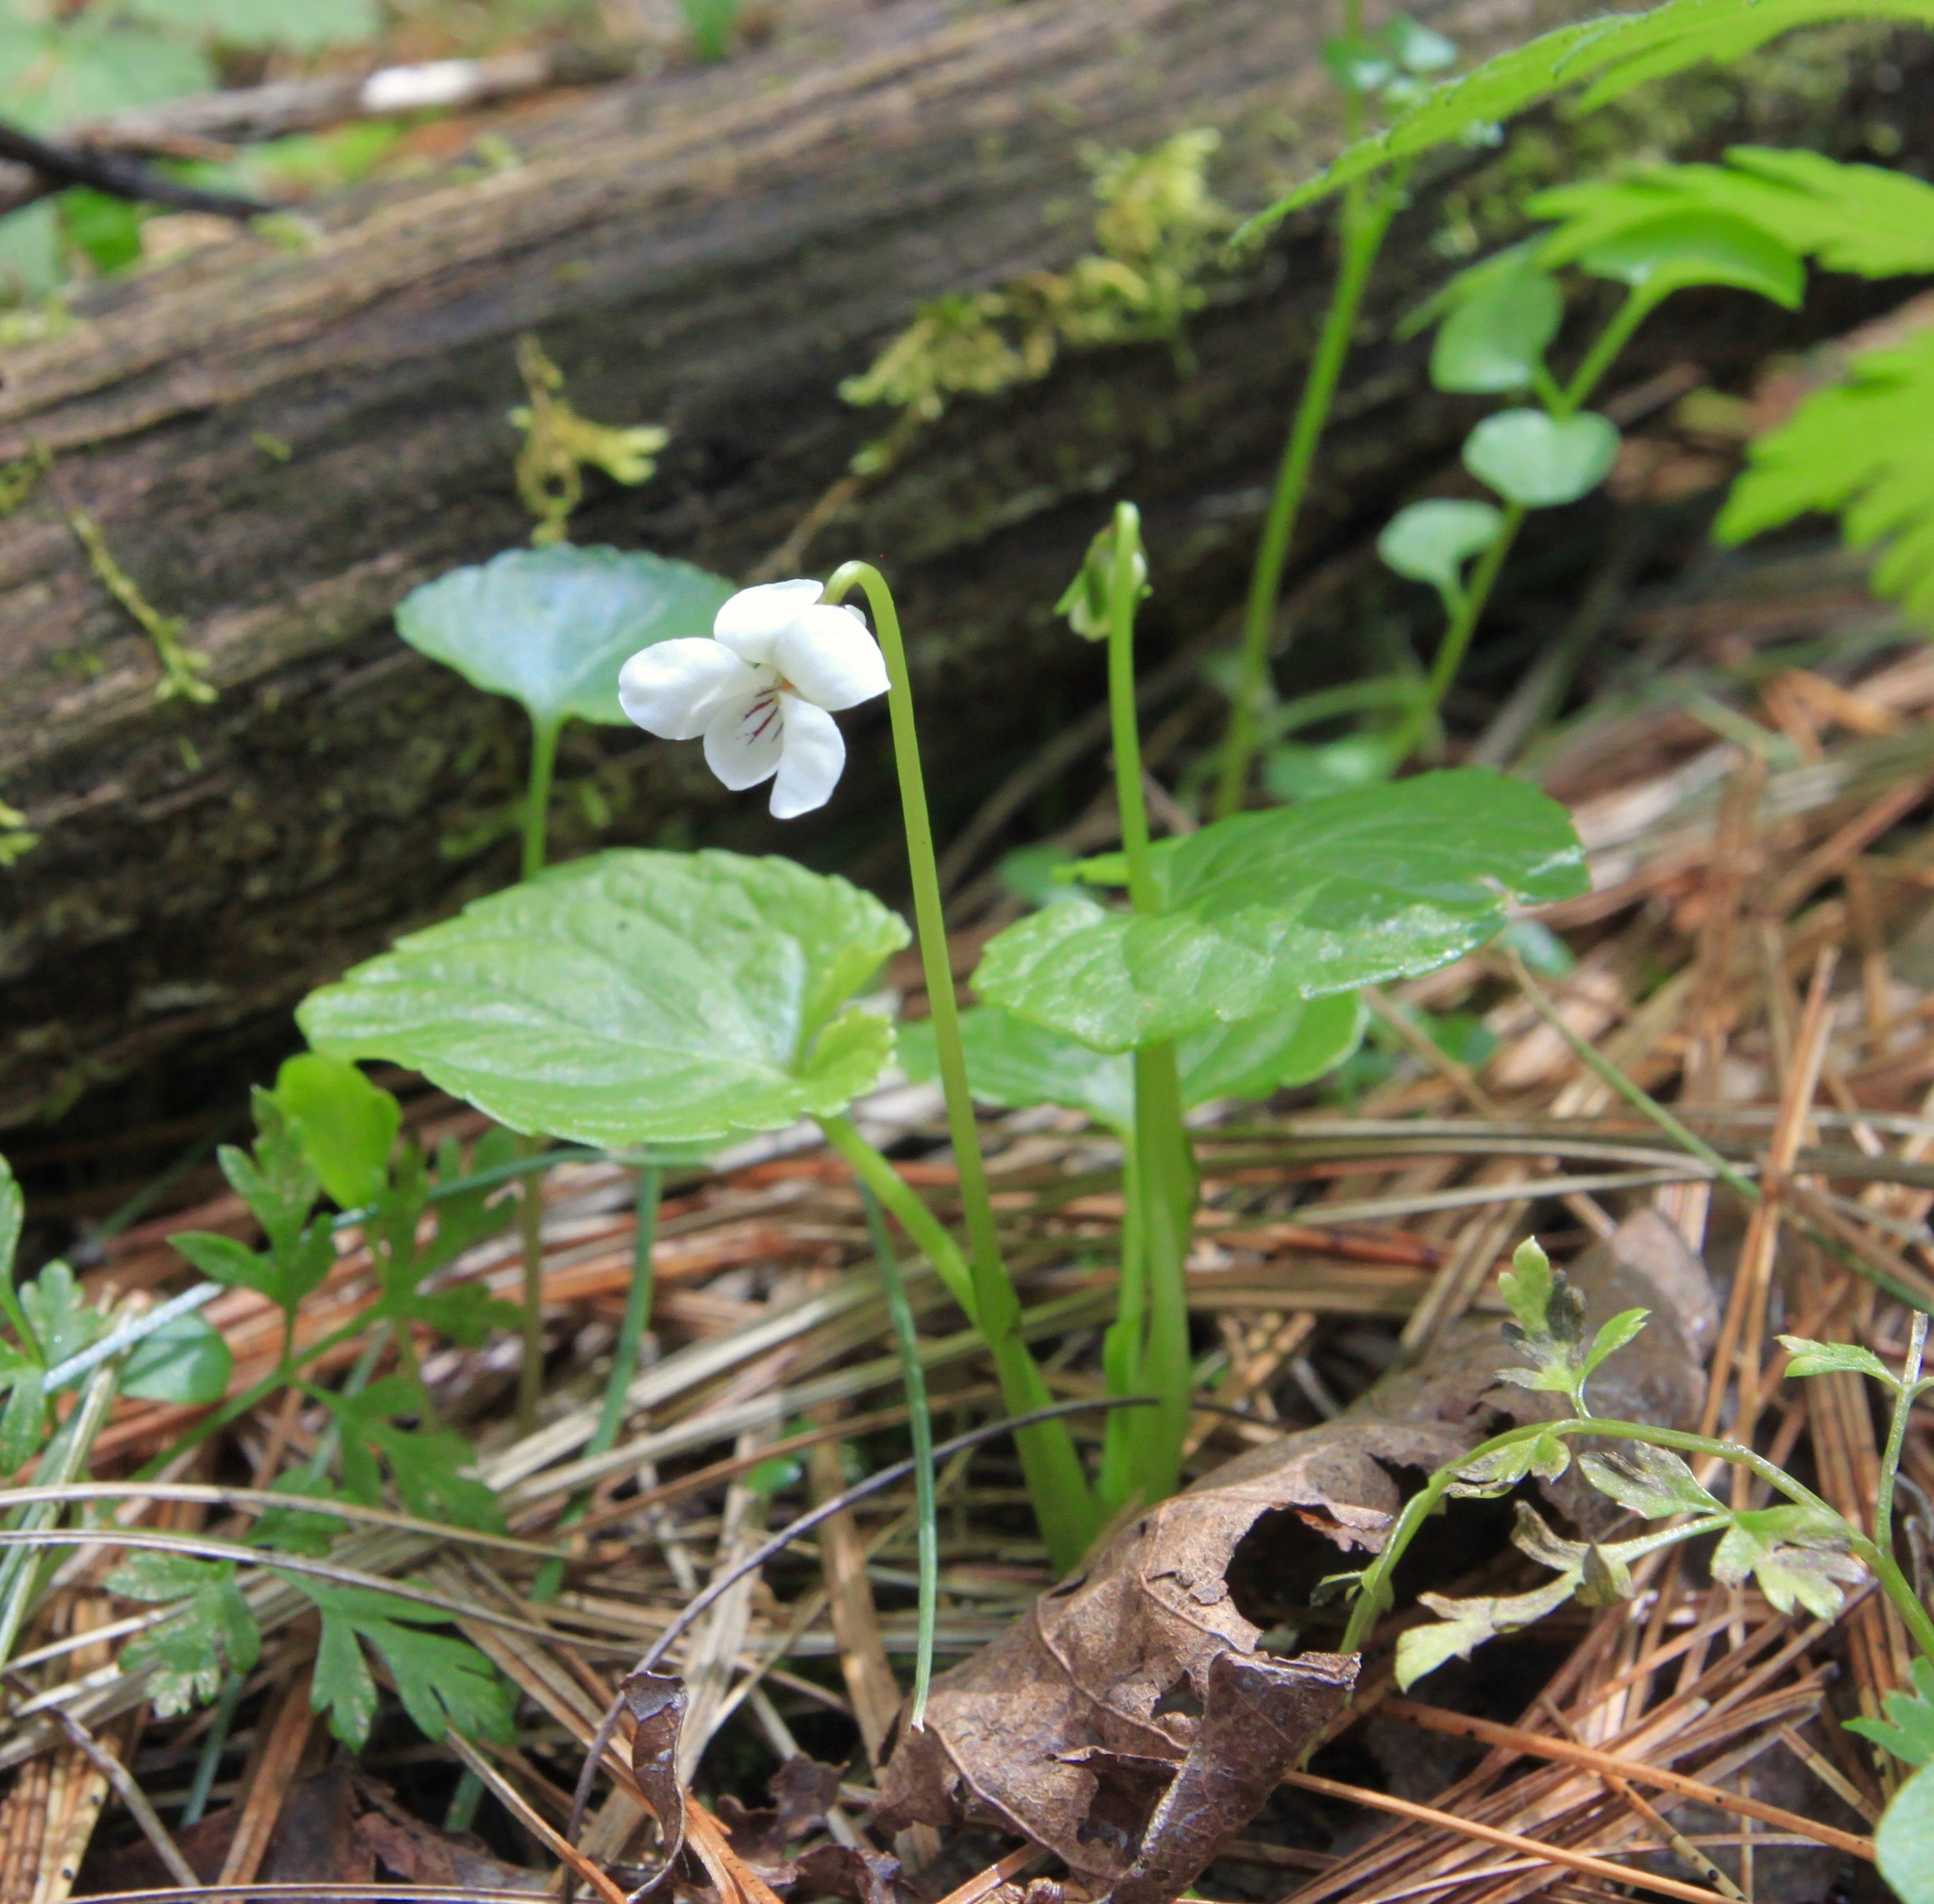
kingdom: Plantae
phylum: Tracheophyta
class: Magnoliopsida
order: Malpighiales
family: Violaceae
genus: Viola
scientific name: Viola minuscula
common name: Northern white violet
